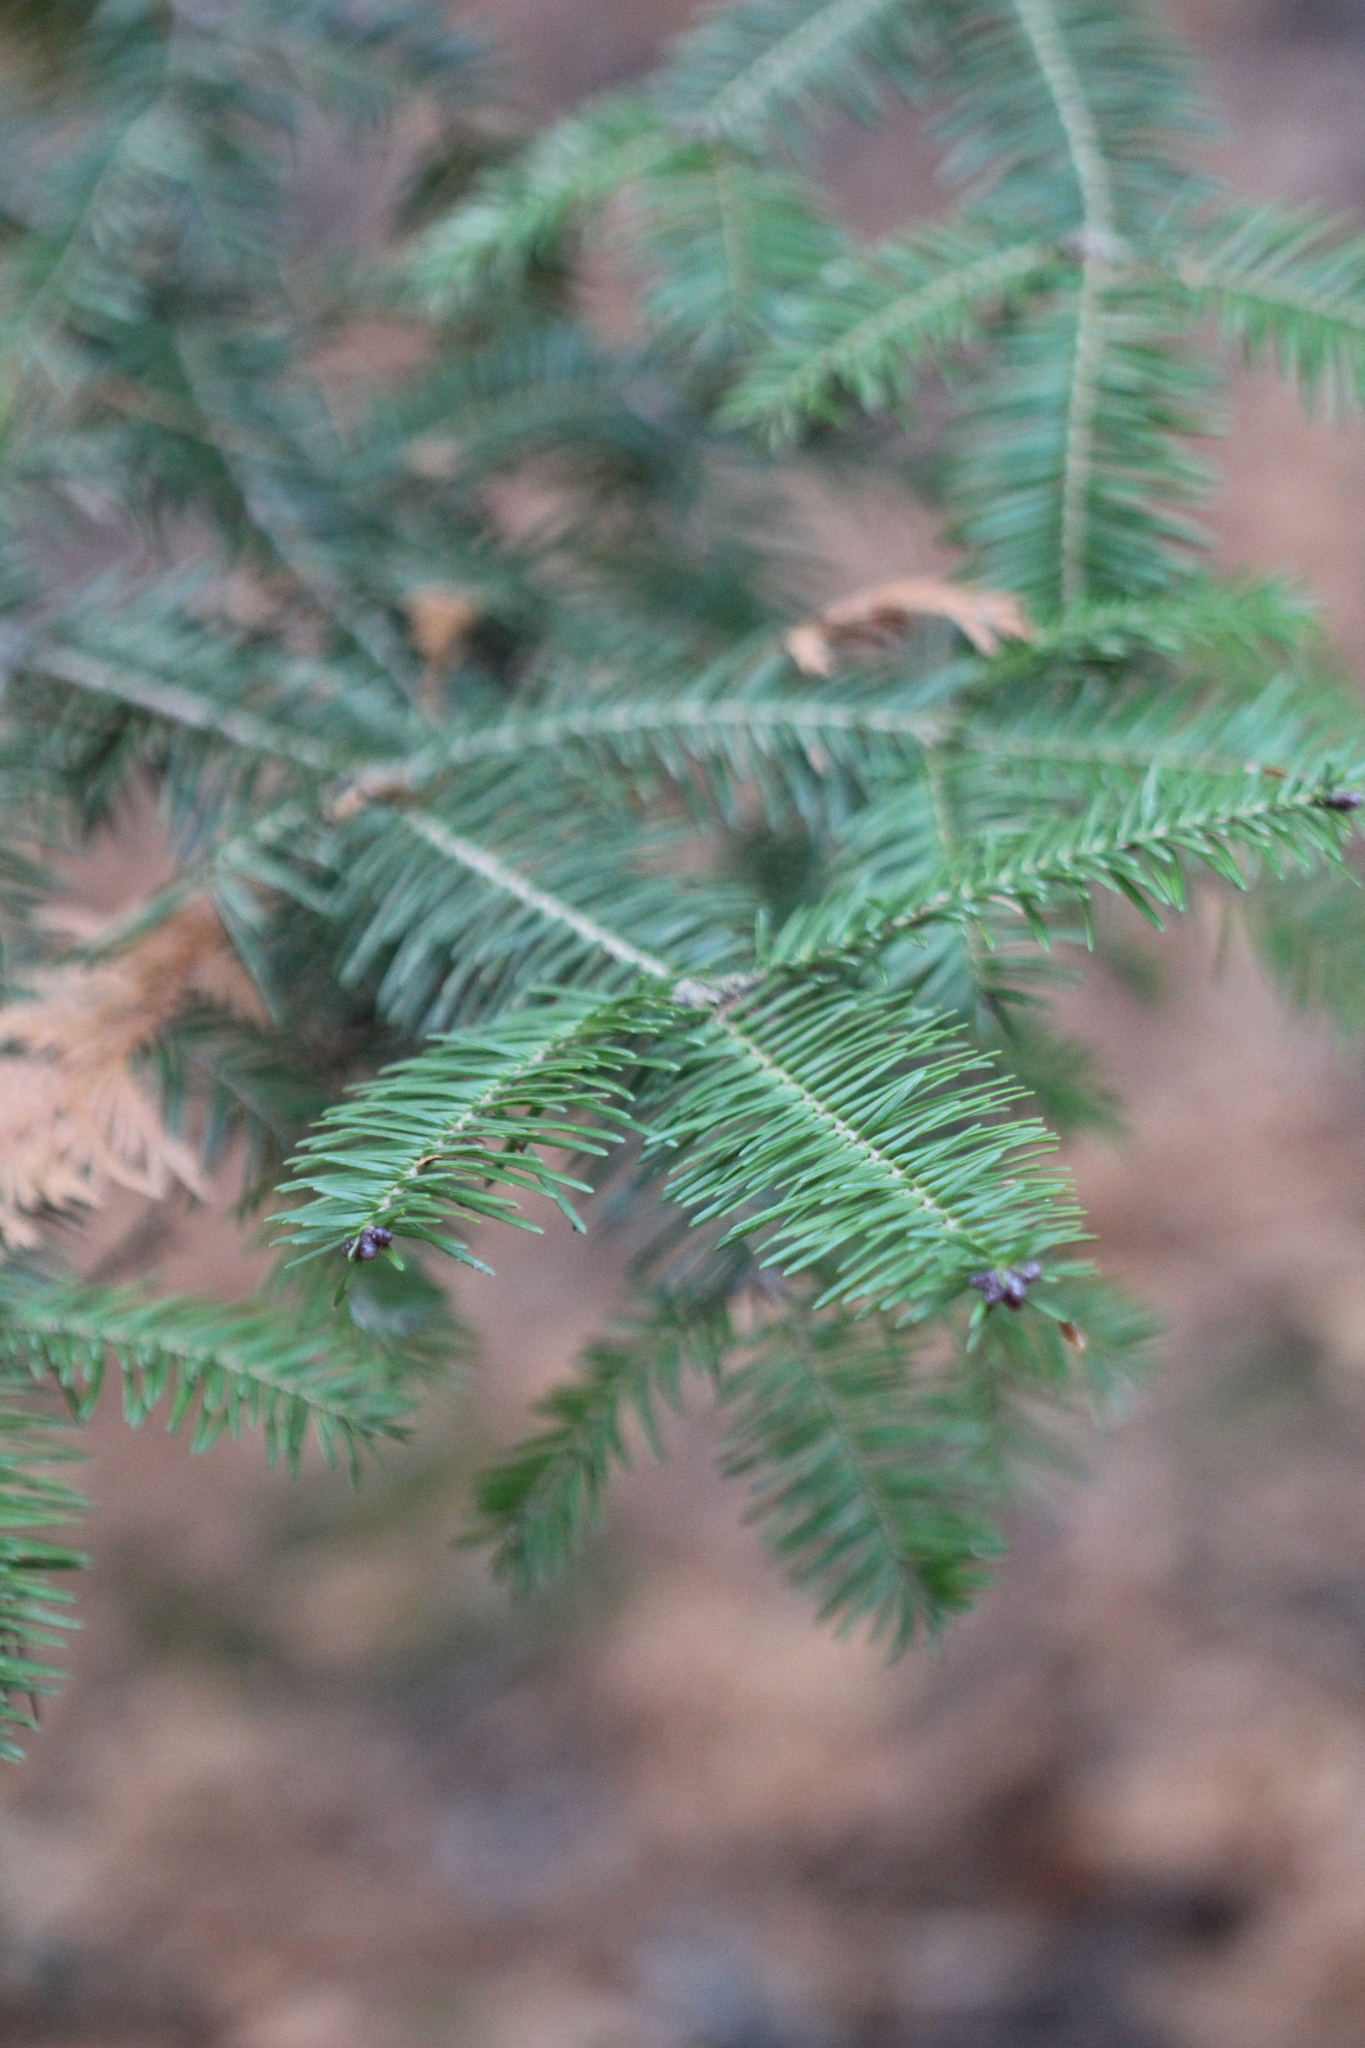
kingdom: Plantae
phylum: Tracheophyta
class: Pinopsida
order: Pinales
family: Pinaceae
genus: Abies
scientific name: Abies balsamea
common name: Balsam fir
